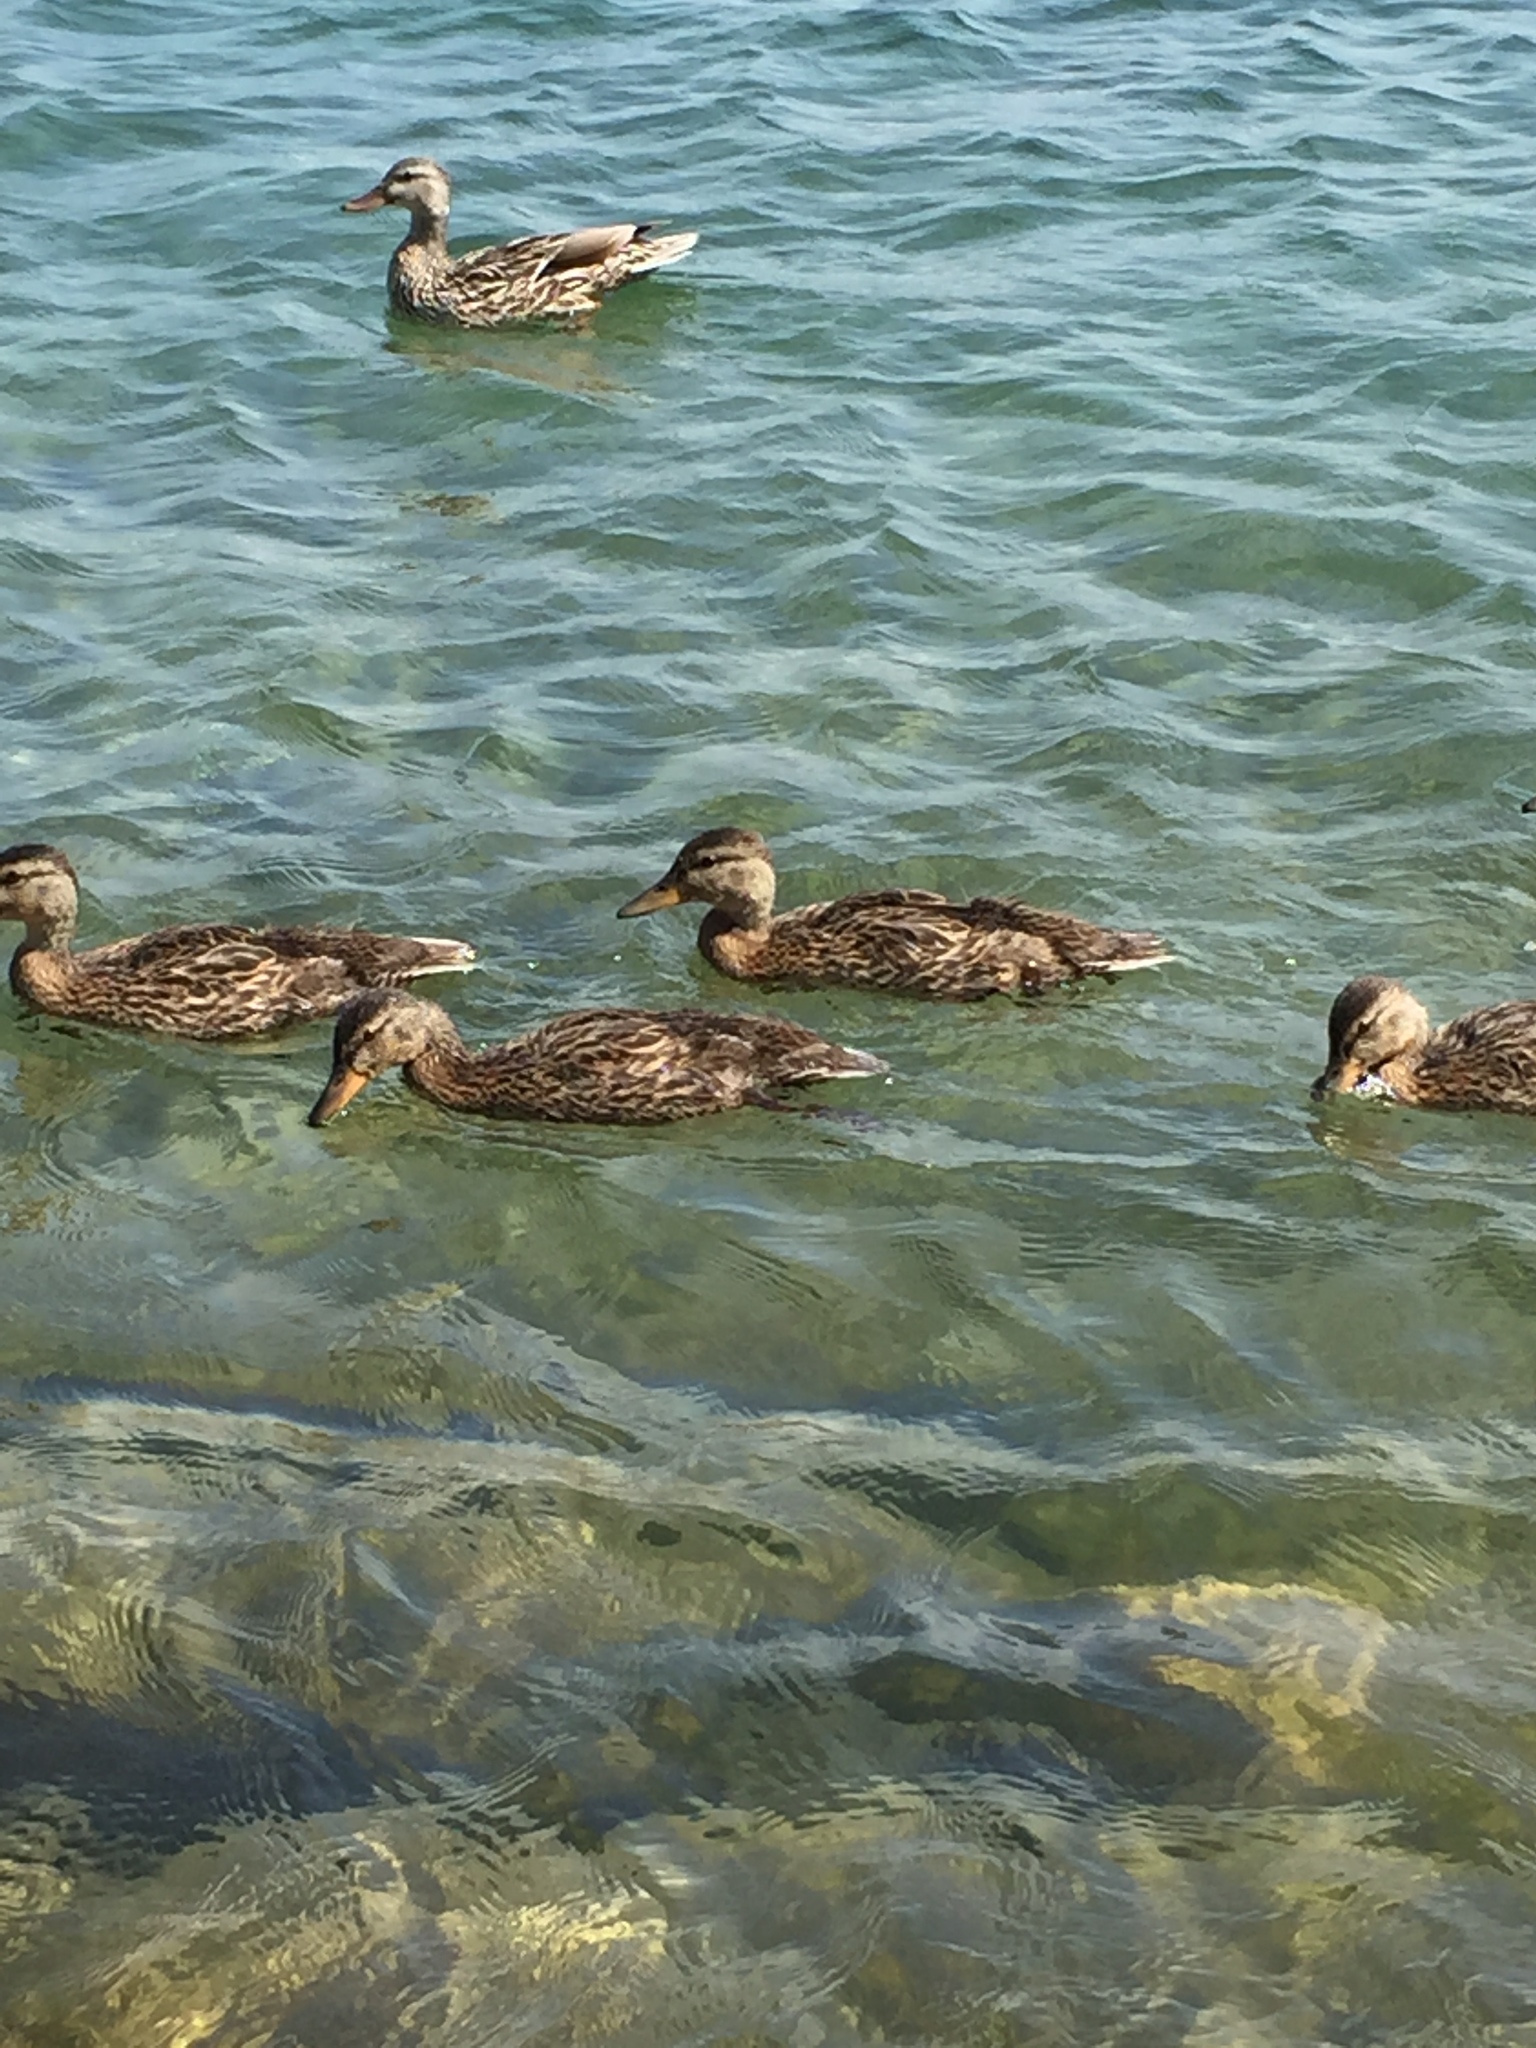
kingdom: Animalia
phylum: Chordata
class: Aves
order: Anseriformes
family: Anatidae
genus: Anas
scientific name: Anas platyrhynchos
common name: Mallard
